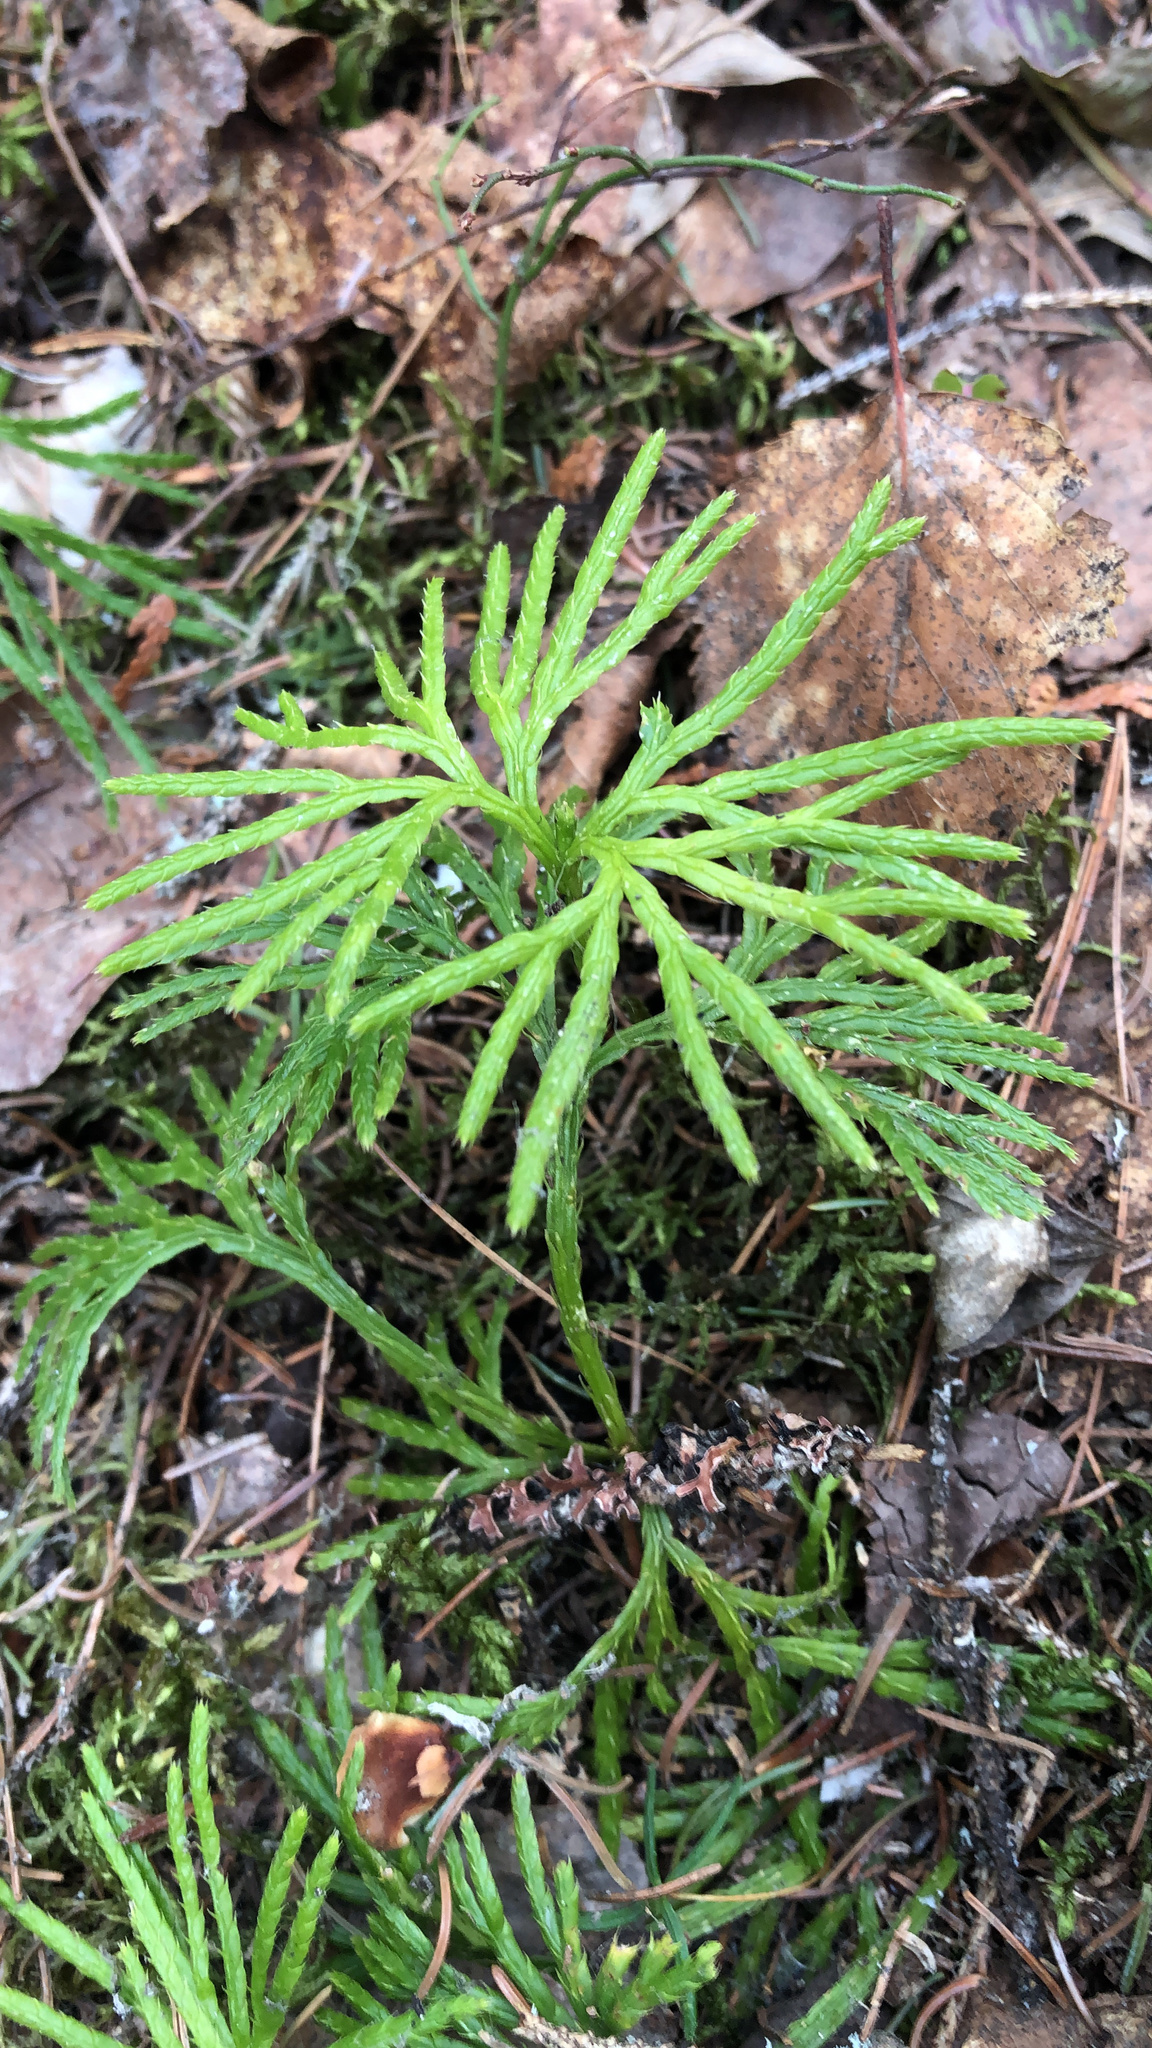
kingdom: Plantae
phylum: Tracheophyta
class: Lycopodiopsida
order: Lycopodiales
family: Lycopodiaceae
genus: Diphasiastrum
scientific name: Diphasiastrum digitatum
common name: Southern running-pine
